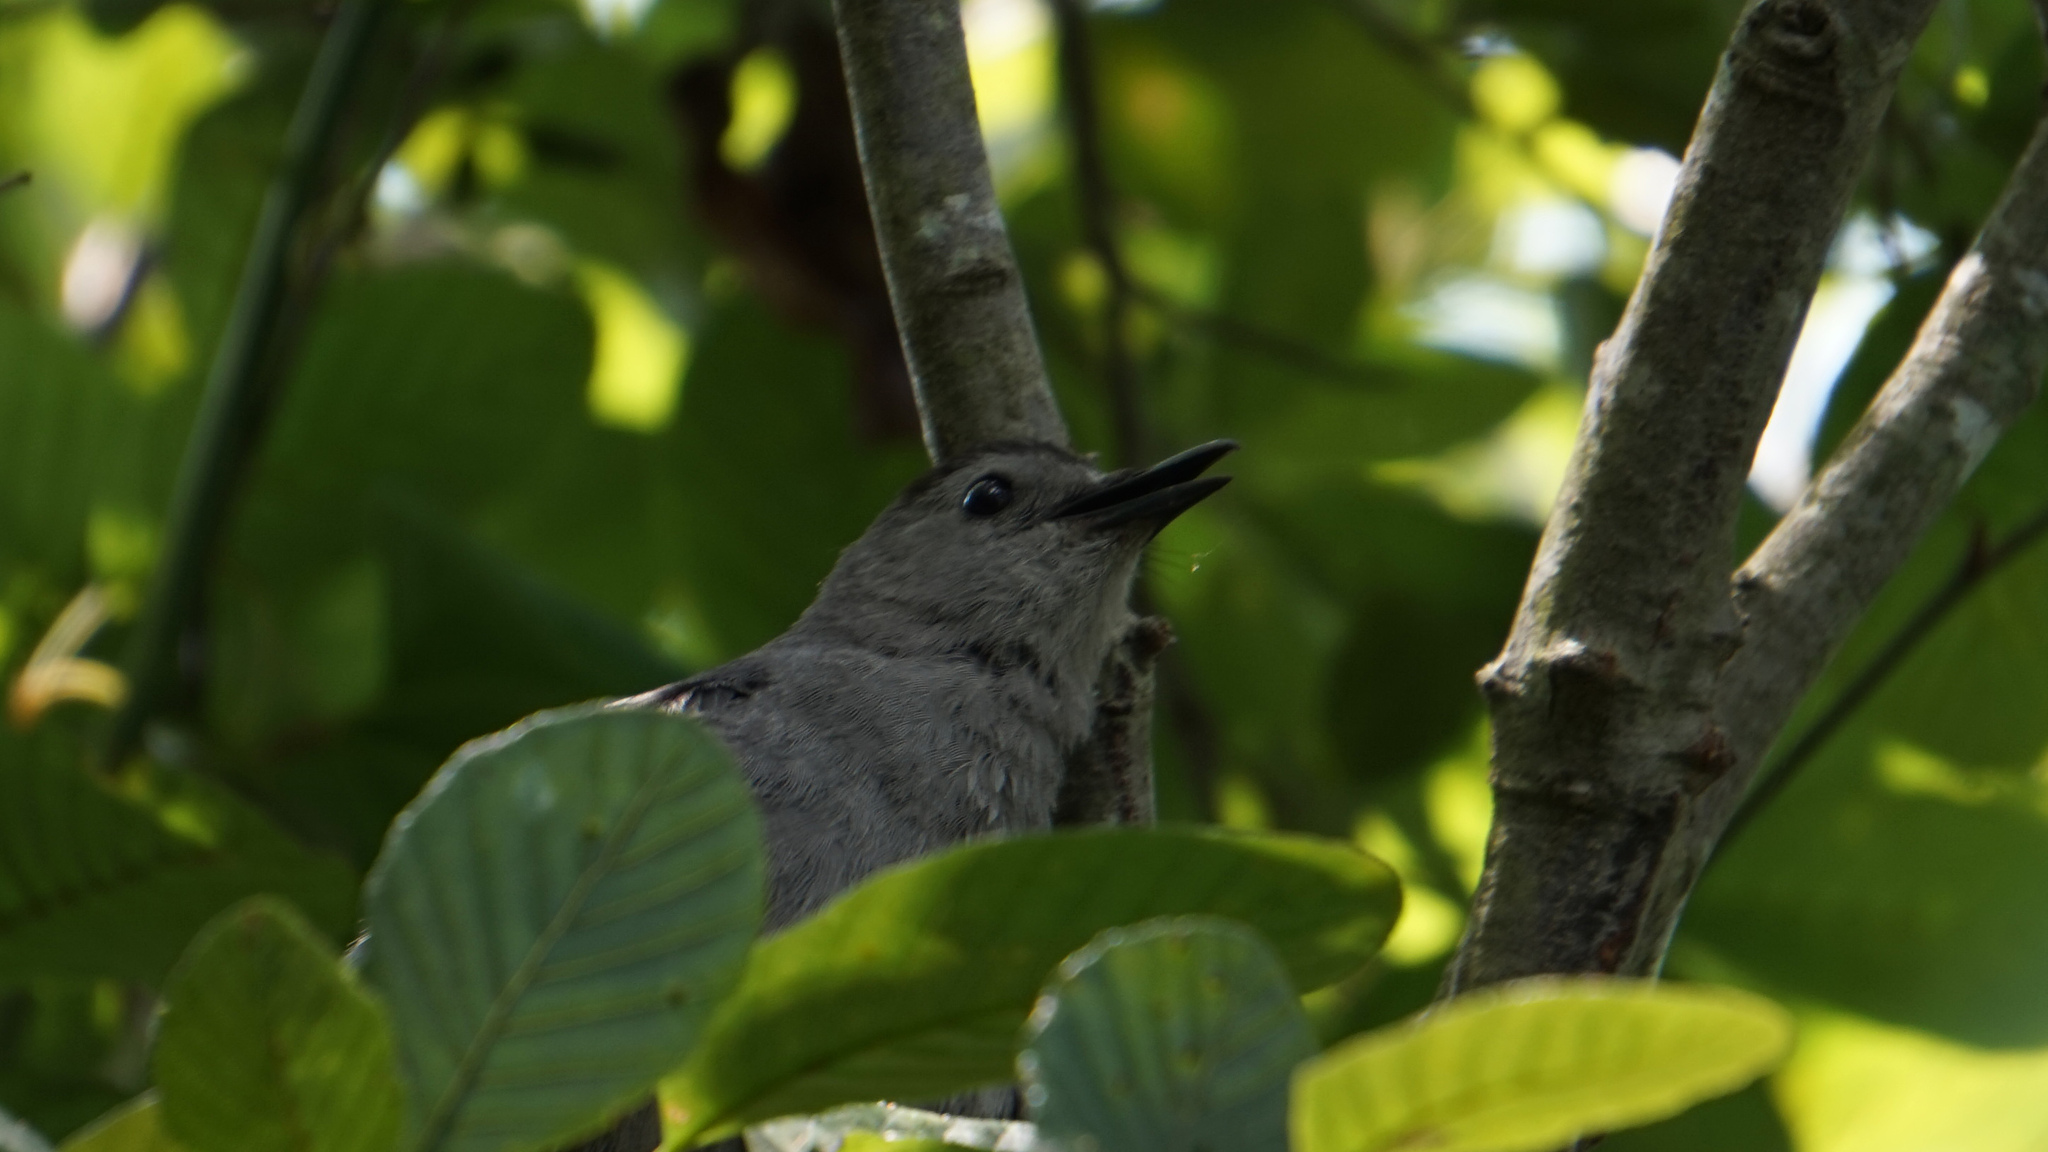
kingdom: Animalia
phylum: Chordata
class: Aves
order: Passeriformes
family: Mimidae
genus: Dumetella
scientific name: Dumetella carolinensis
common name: Gray catbird
